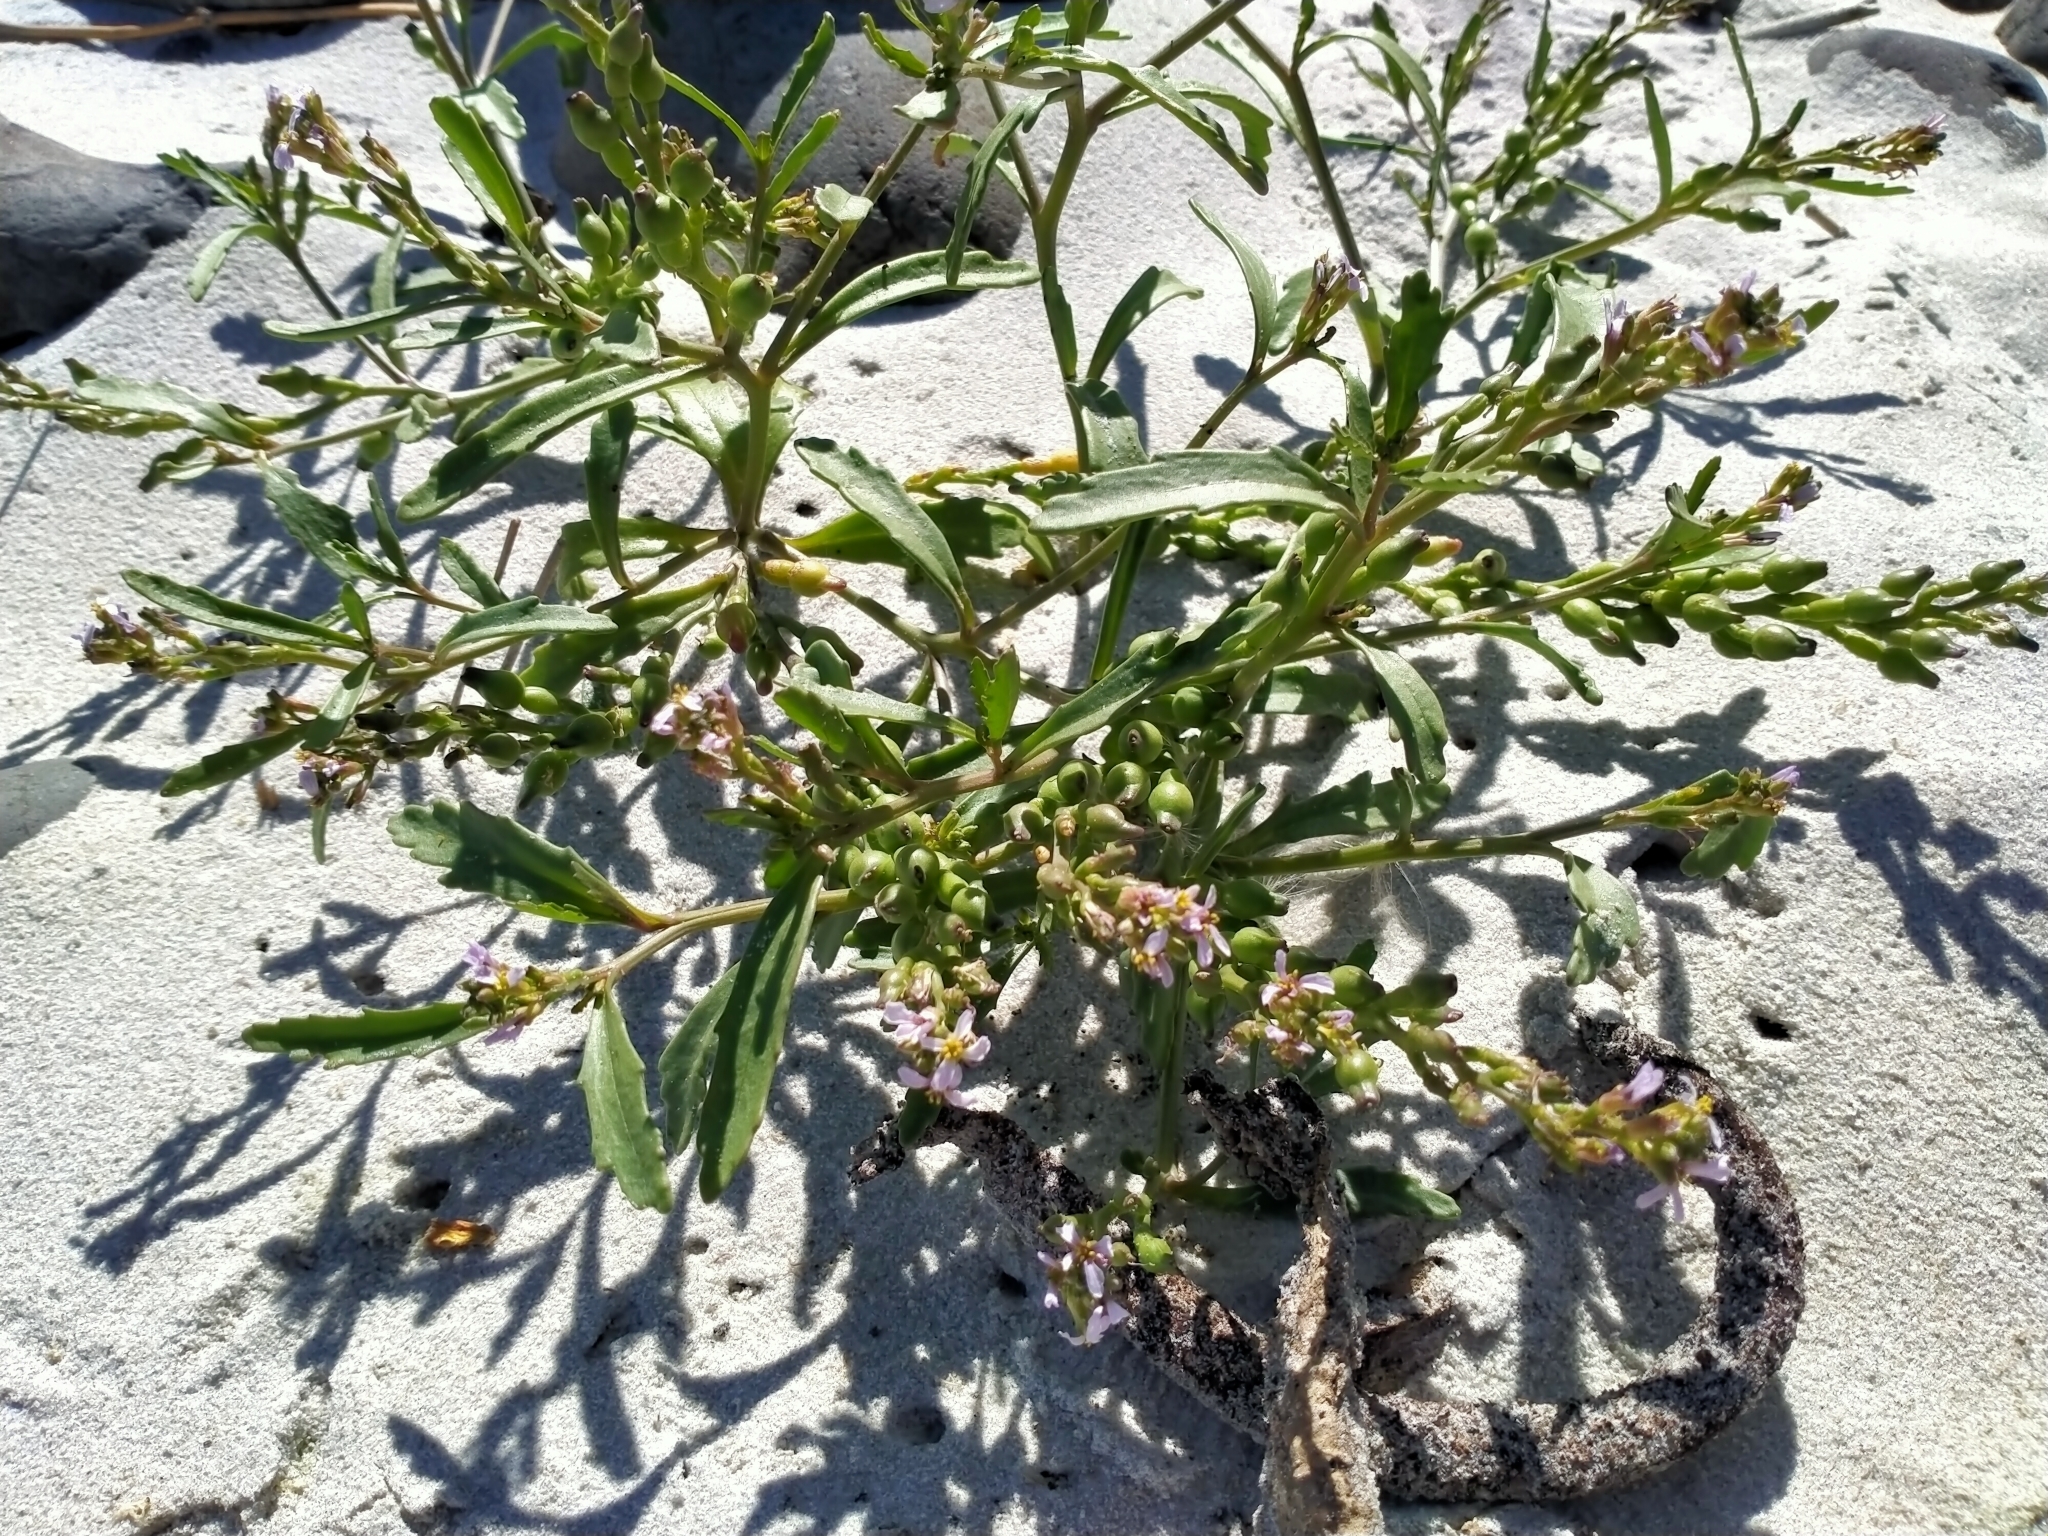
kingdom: Plantae
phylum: Tracheophyta
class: Magnoliopsida
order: Brassicales
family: Brassicaceae
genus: Cakile
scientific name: Cakile edentula
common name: American sea rocket
